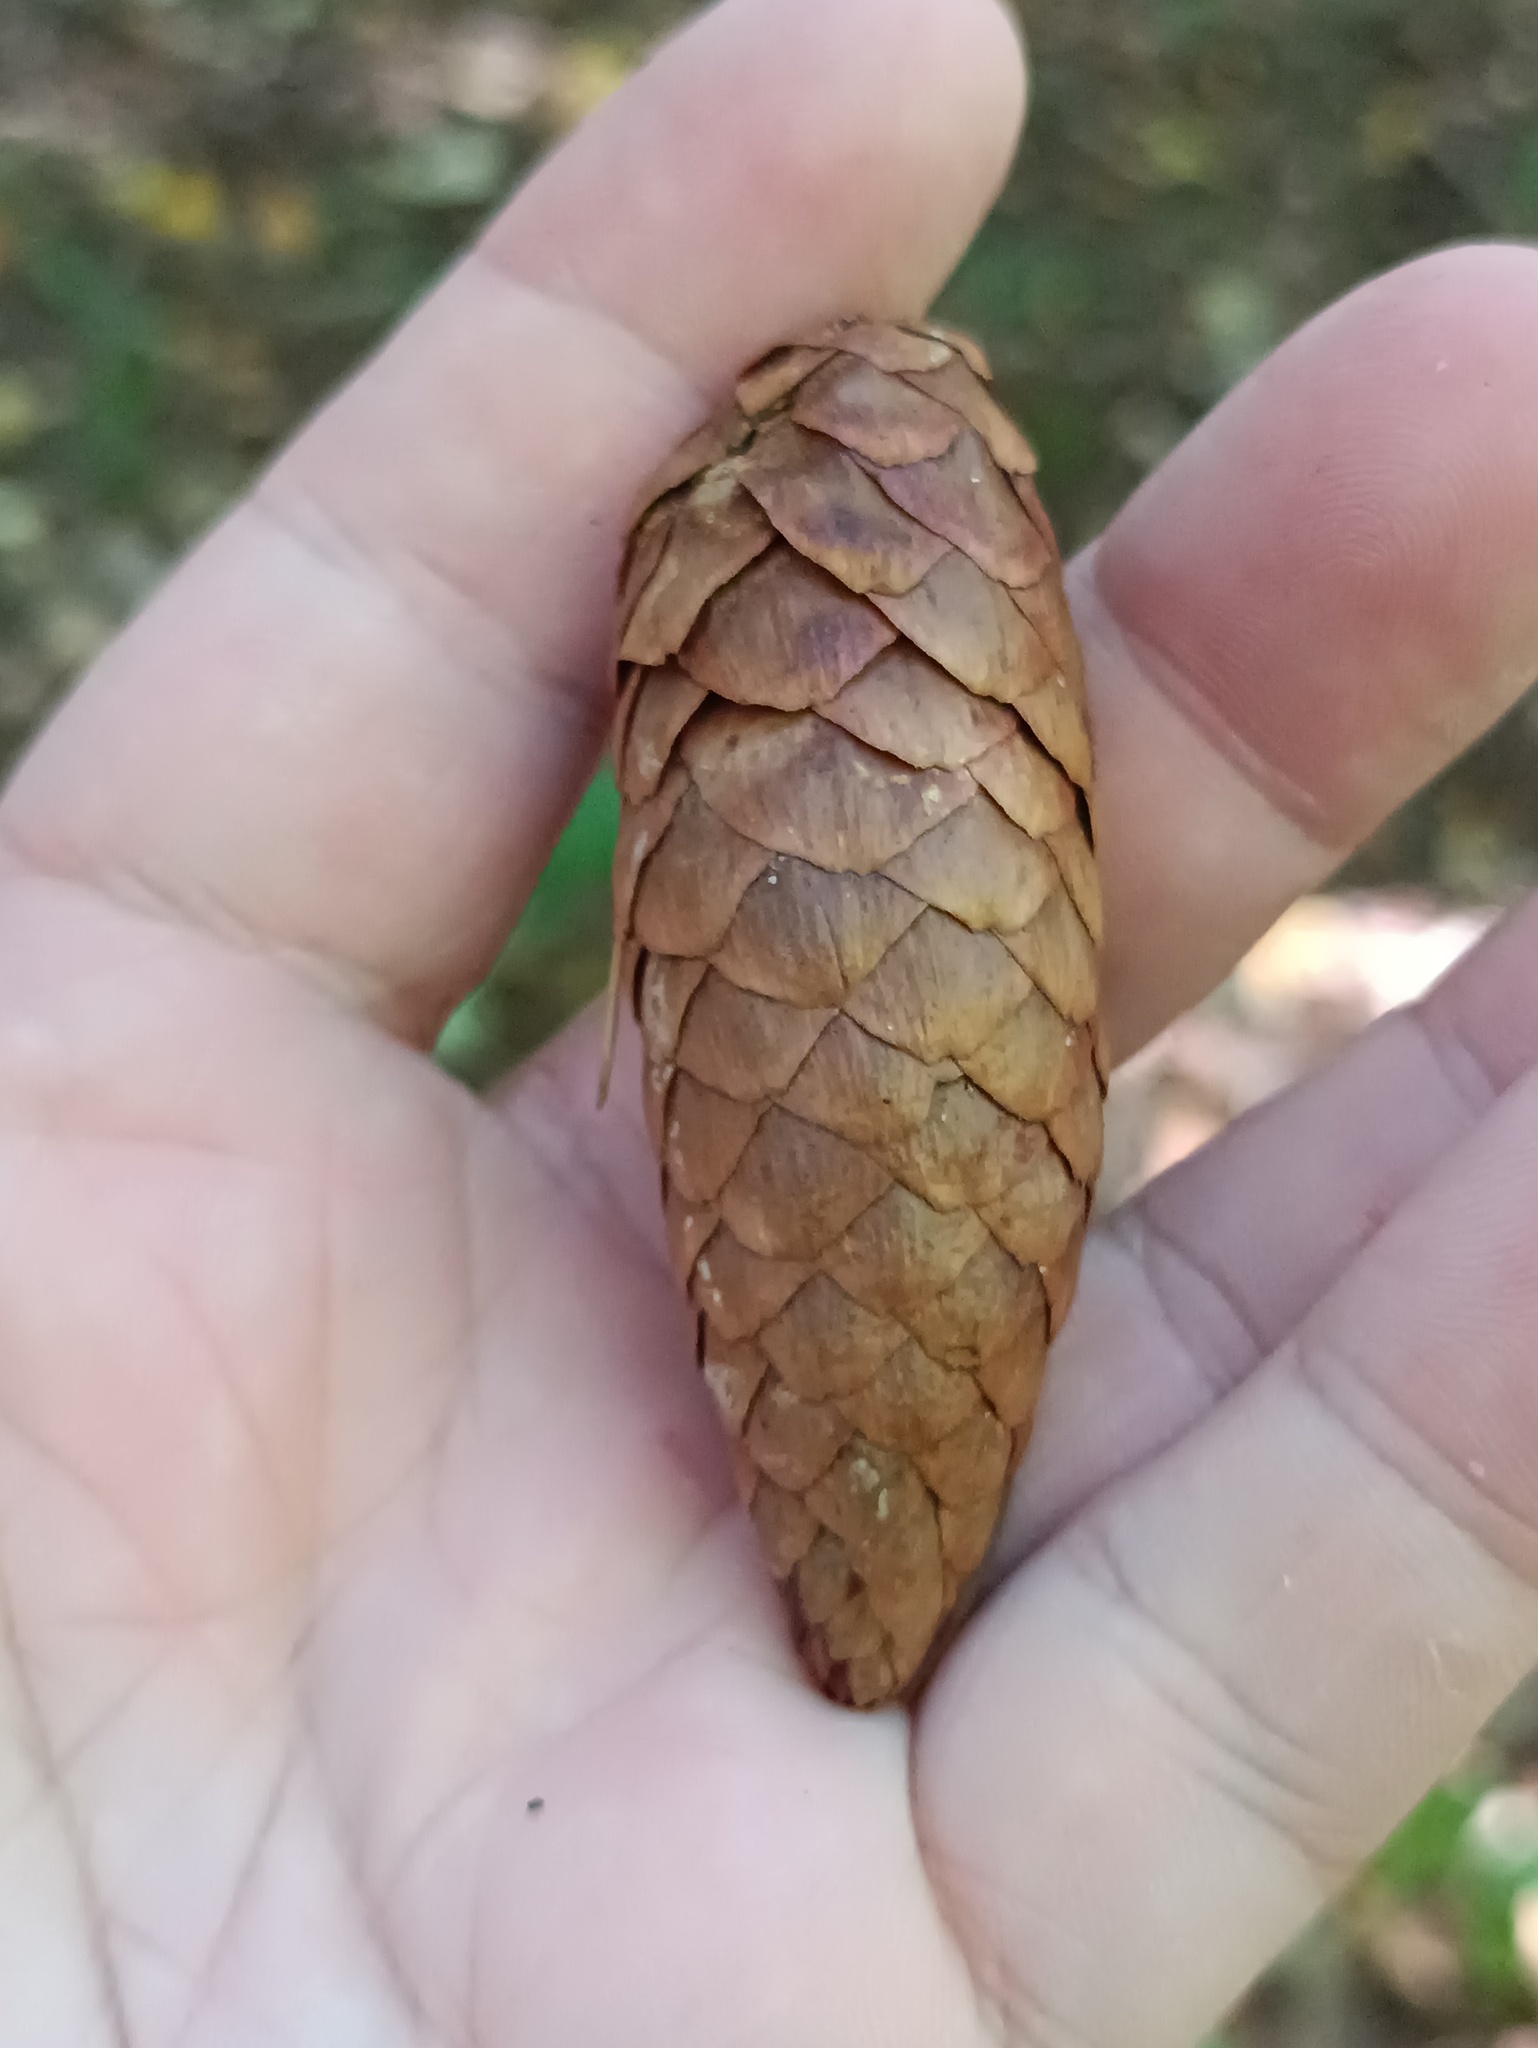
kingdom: Plantae
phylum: Tracheophyta
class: Pinopsida
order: Pinales
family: Pinaceae
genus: Picea
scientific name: Picea abies
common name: Norway spruce
